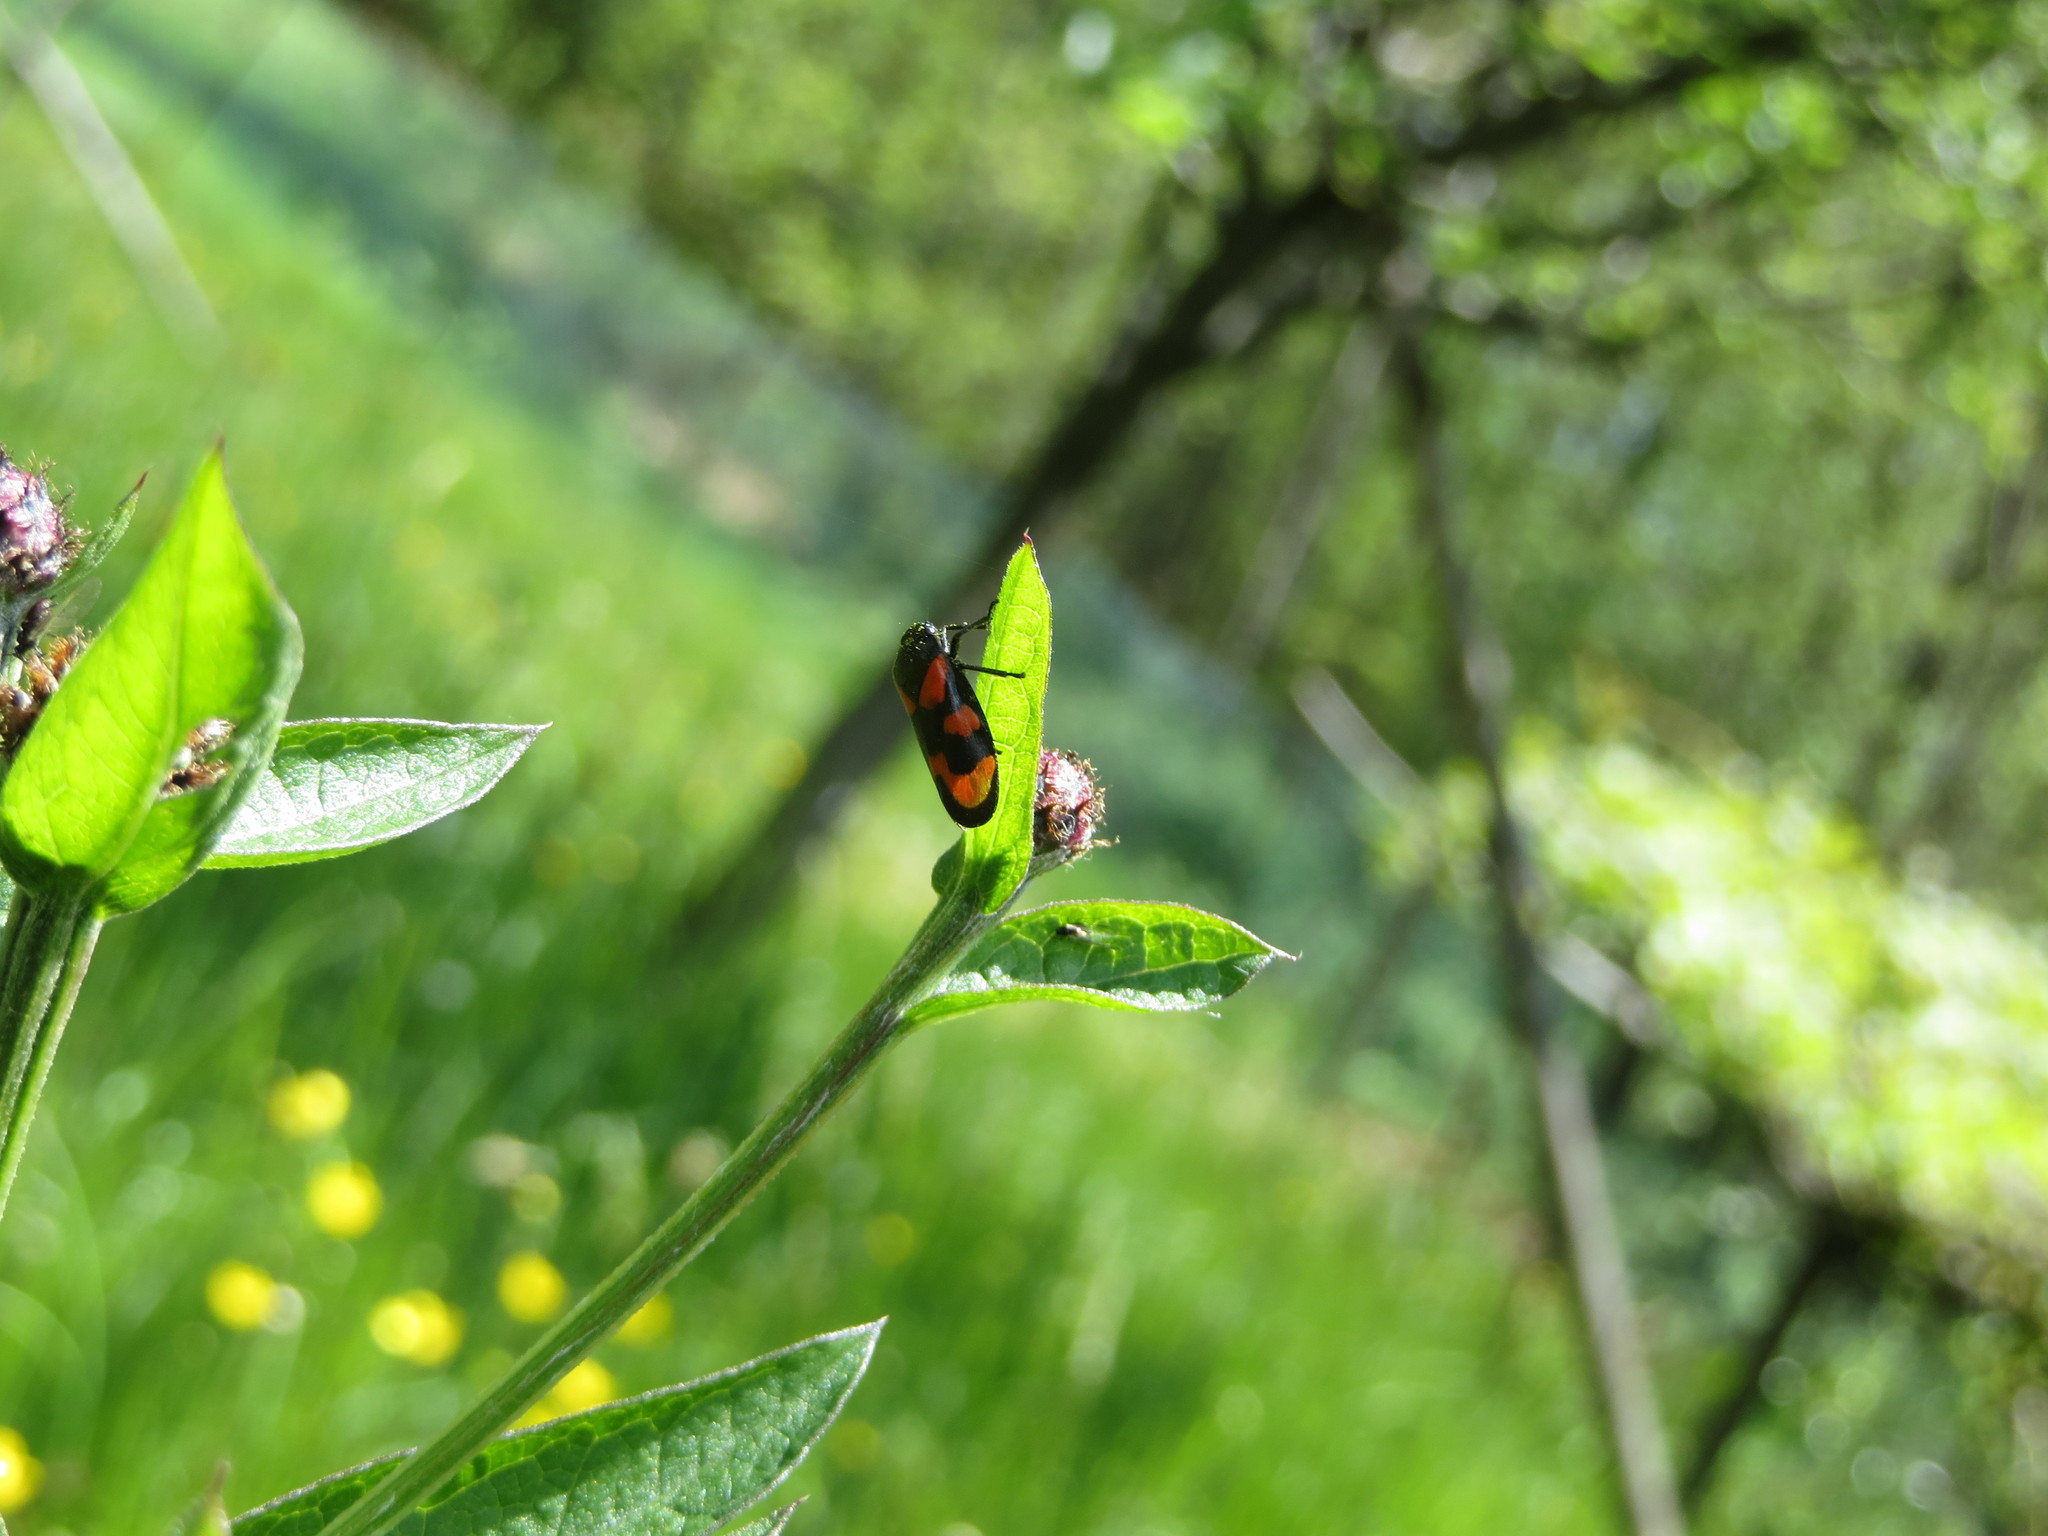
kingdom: Animalia
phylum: Arthropoda
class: Insecta
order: Hemiptera
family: Cercopidae
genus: Cercopis
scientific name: Cercopis vulnerata
